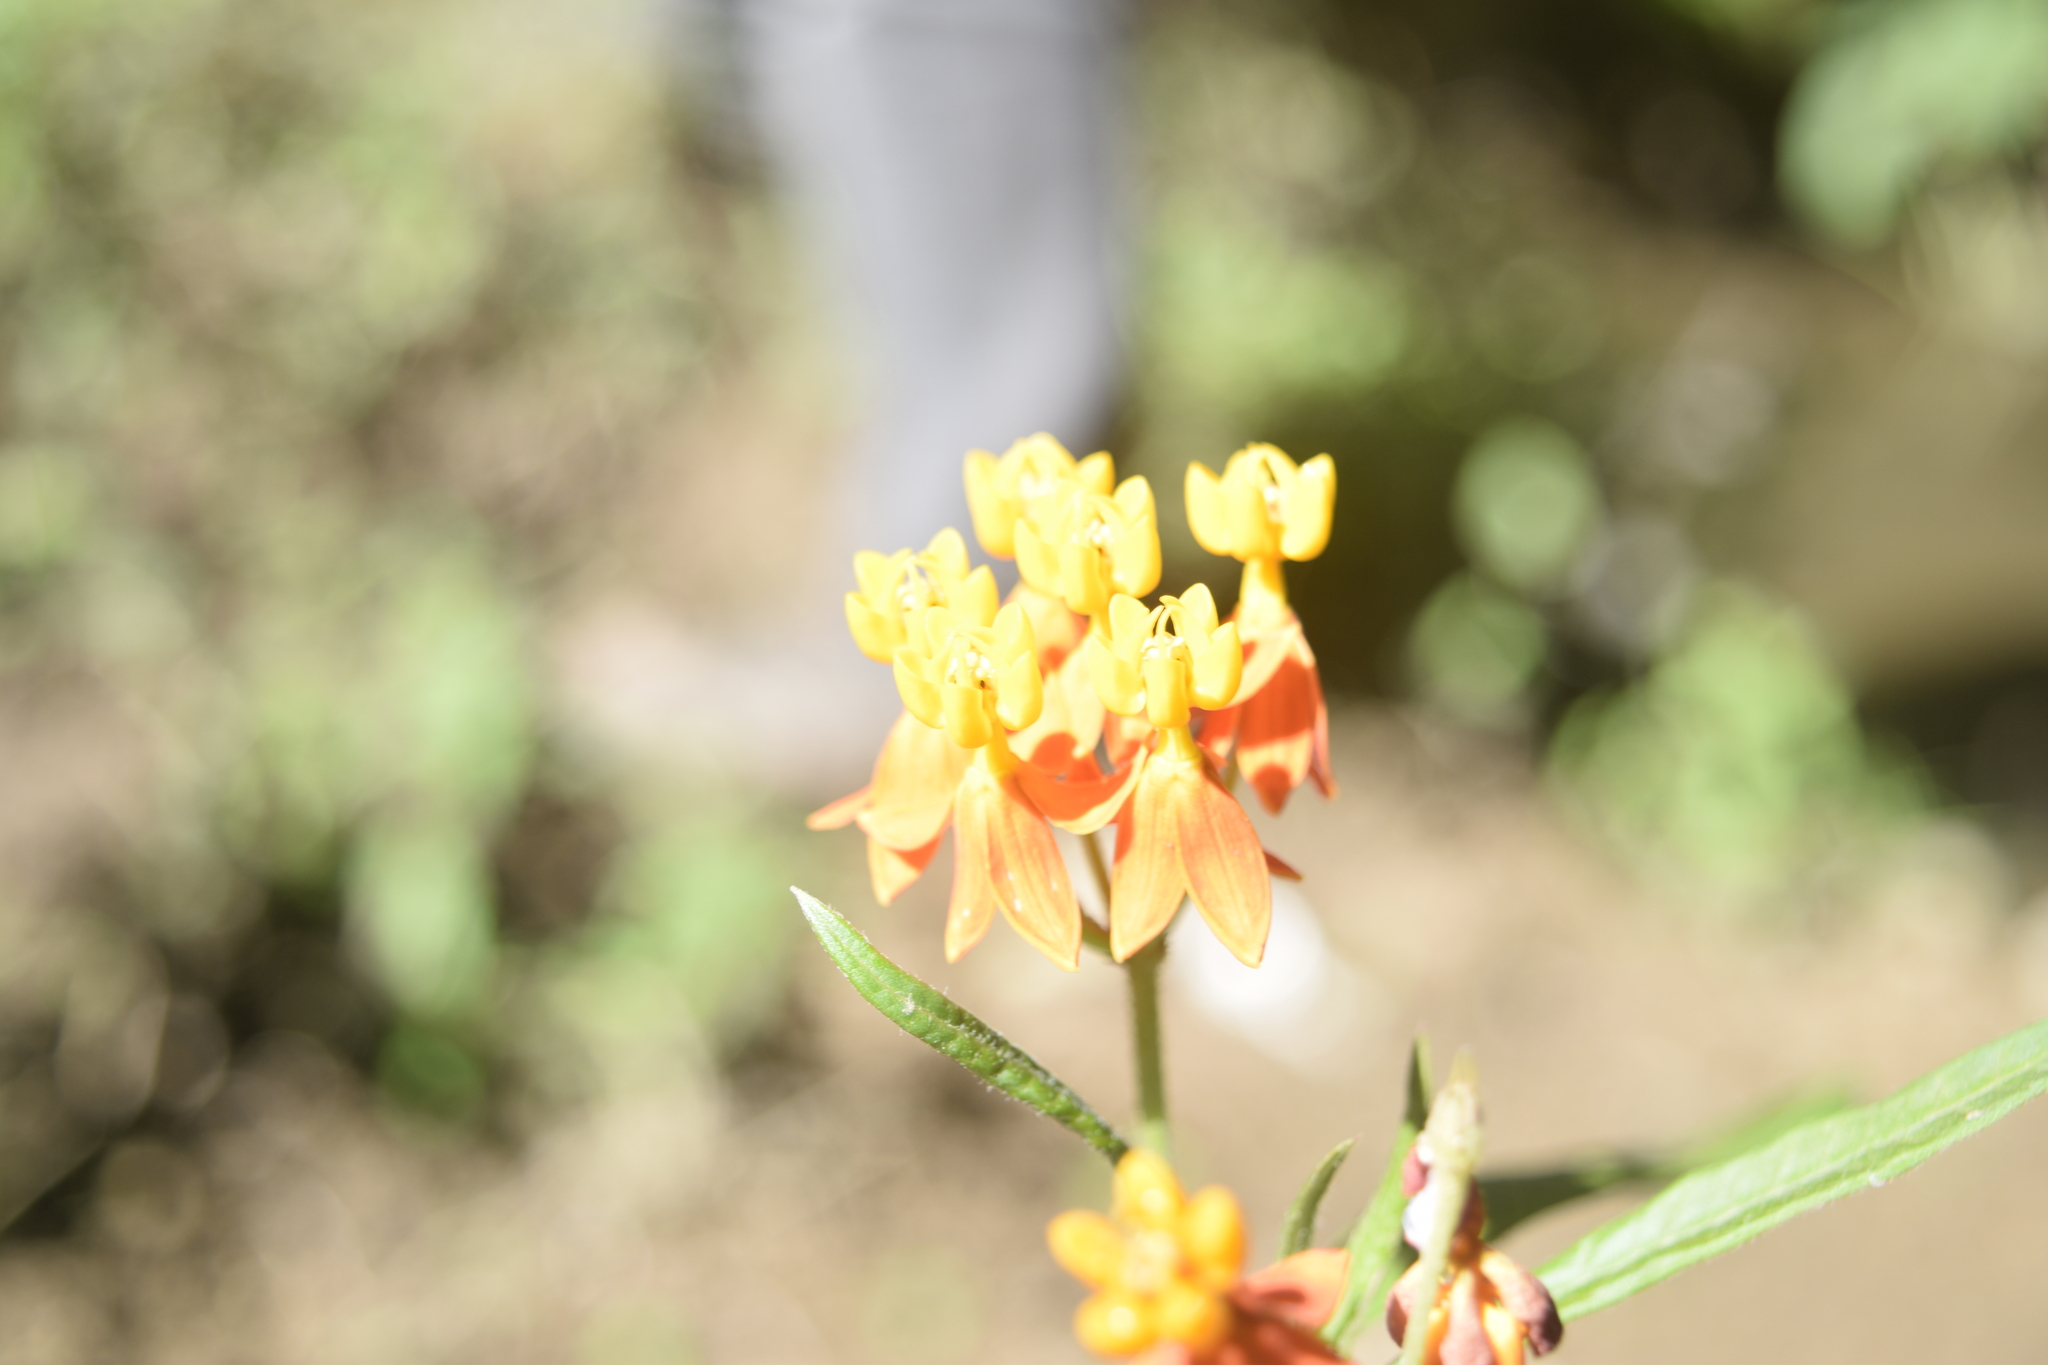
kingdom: Plantae
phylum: Tracheophyta
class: Magnoliopsida
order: Gentianales
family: Apocynaceae
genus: Asclepias
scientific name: Asclepias curassavica
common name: Bloodflower
